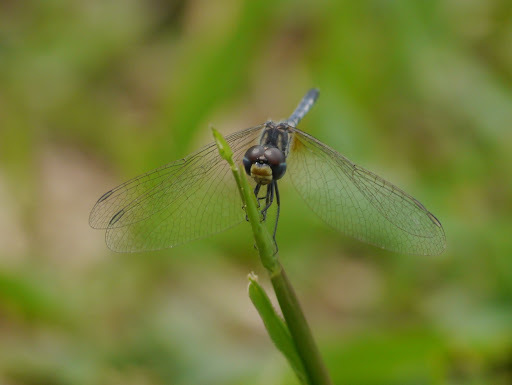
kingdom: Animalia
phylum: Arthropoda
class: Insecta
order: Odonata
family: Libellulidae
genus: Diplacodes
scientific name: Diplacodes deminuta
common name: Little percher
